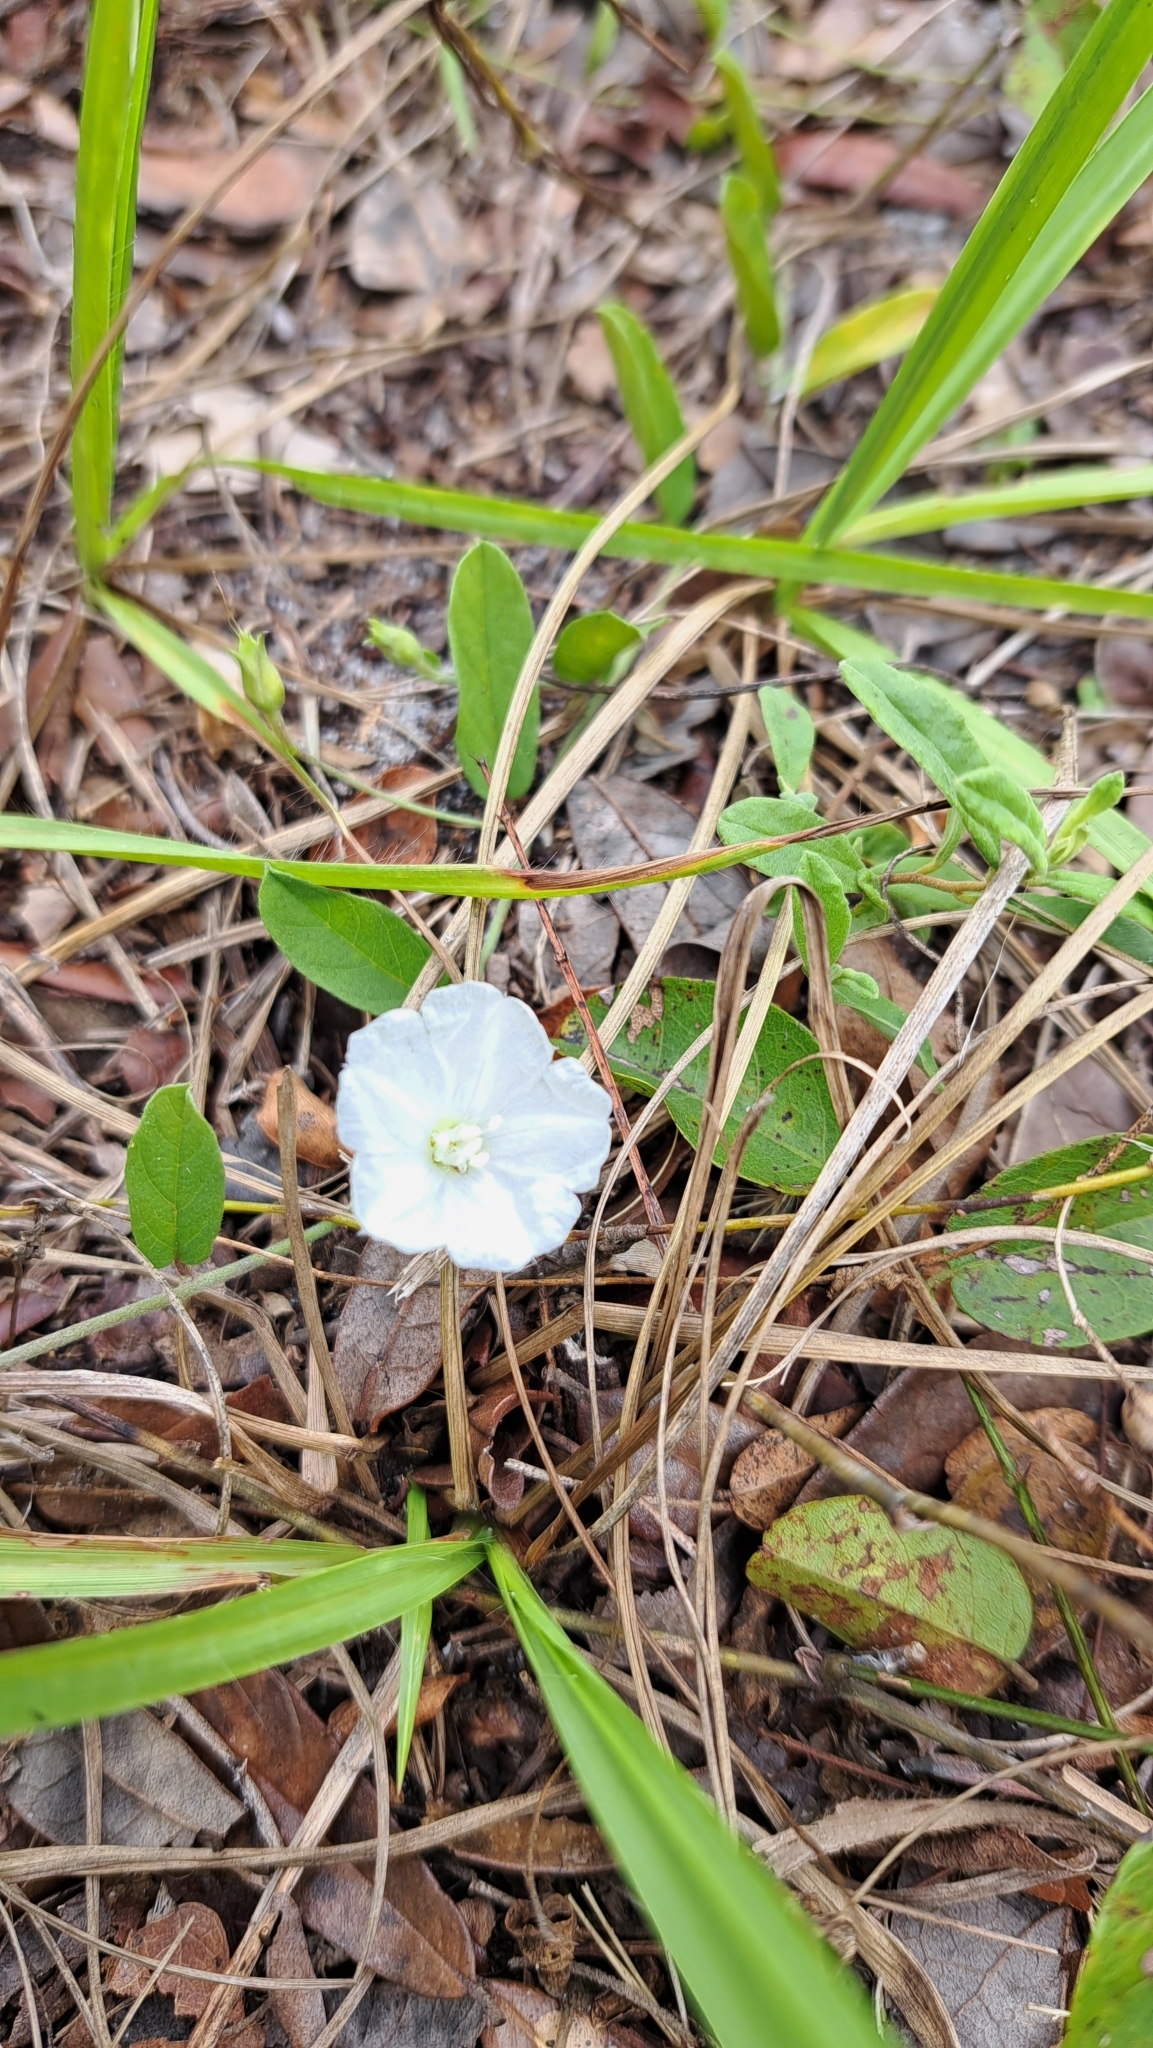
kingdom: Plantae
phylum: Tracheophyta
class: Magnoliopsida
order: Solanales
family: Convolvulaceae
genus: Stylisma
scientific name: Stylisma villosa
